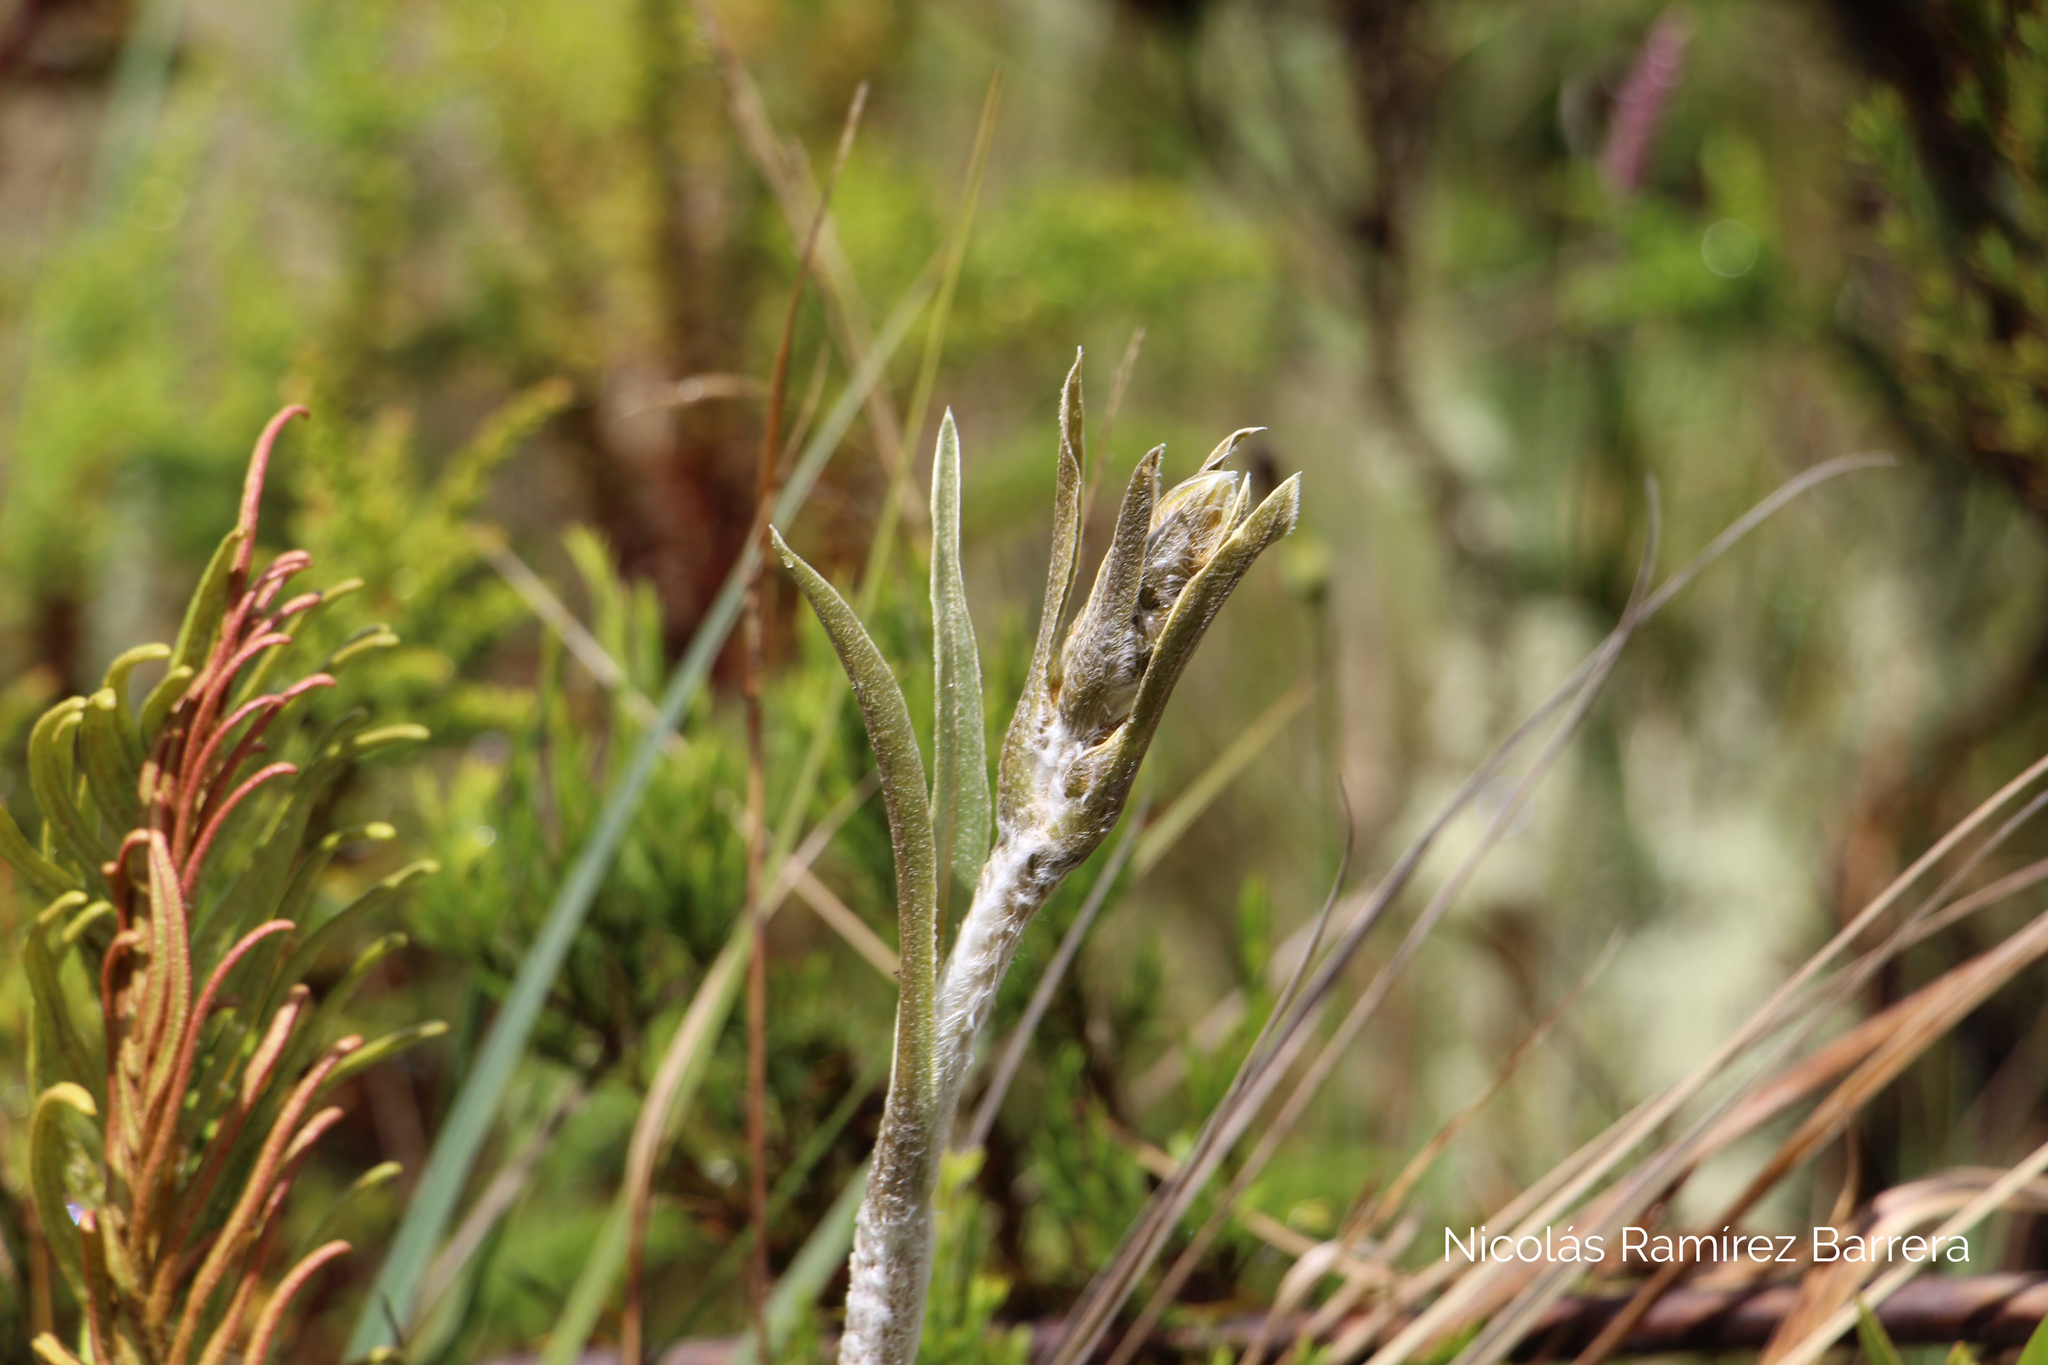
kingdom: Plantae
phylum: Tracheophyta
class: Magnoliopsida
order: Asterales
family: Asteraceae
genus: Espeletia
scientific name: Espeletia argentea
